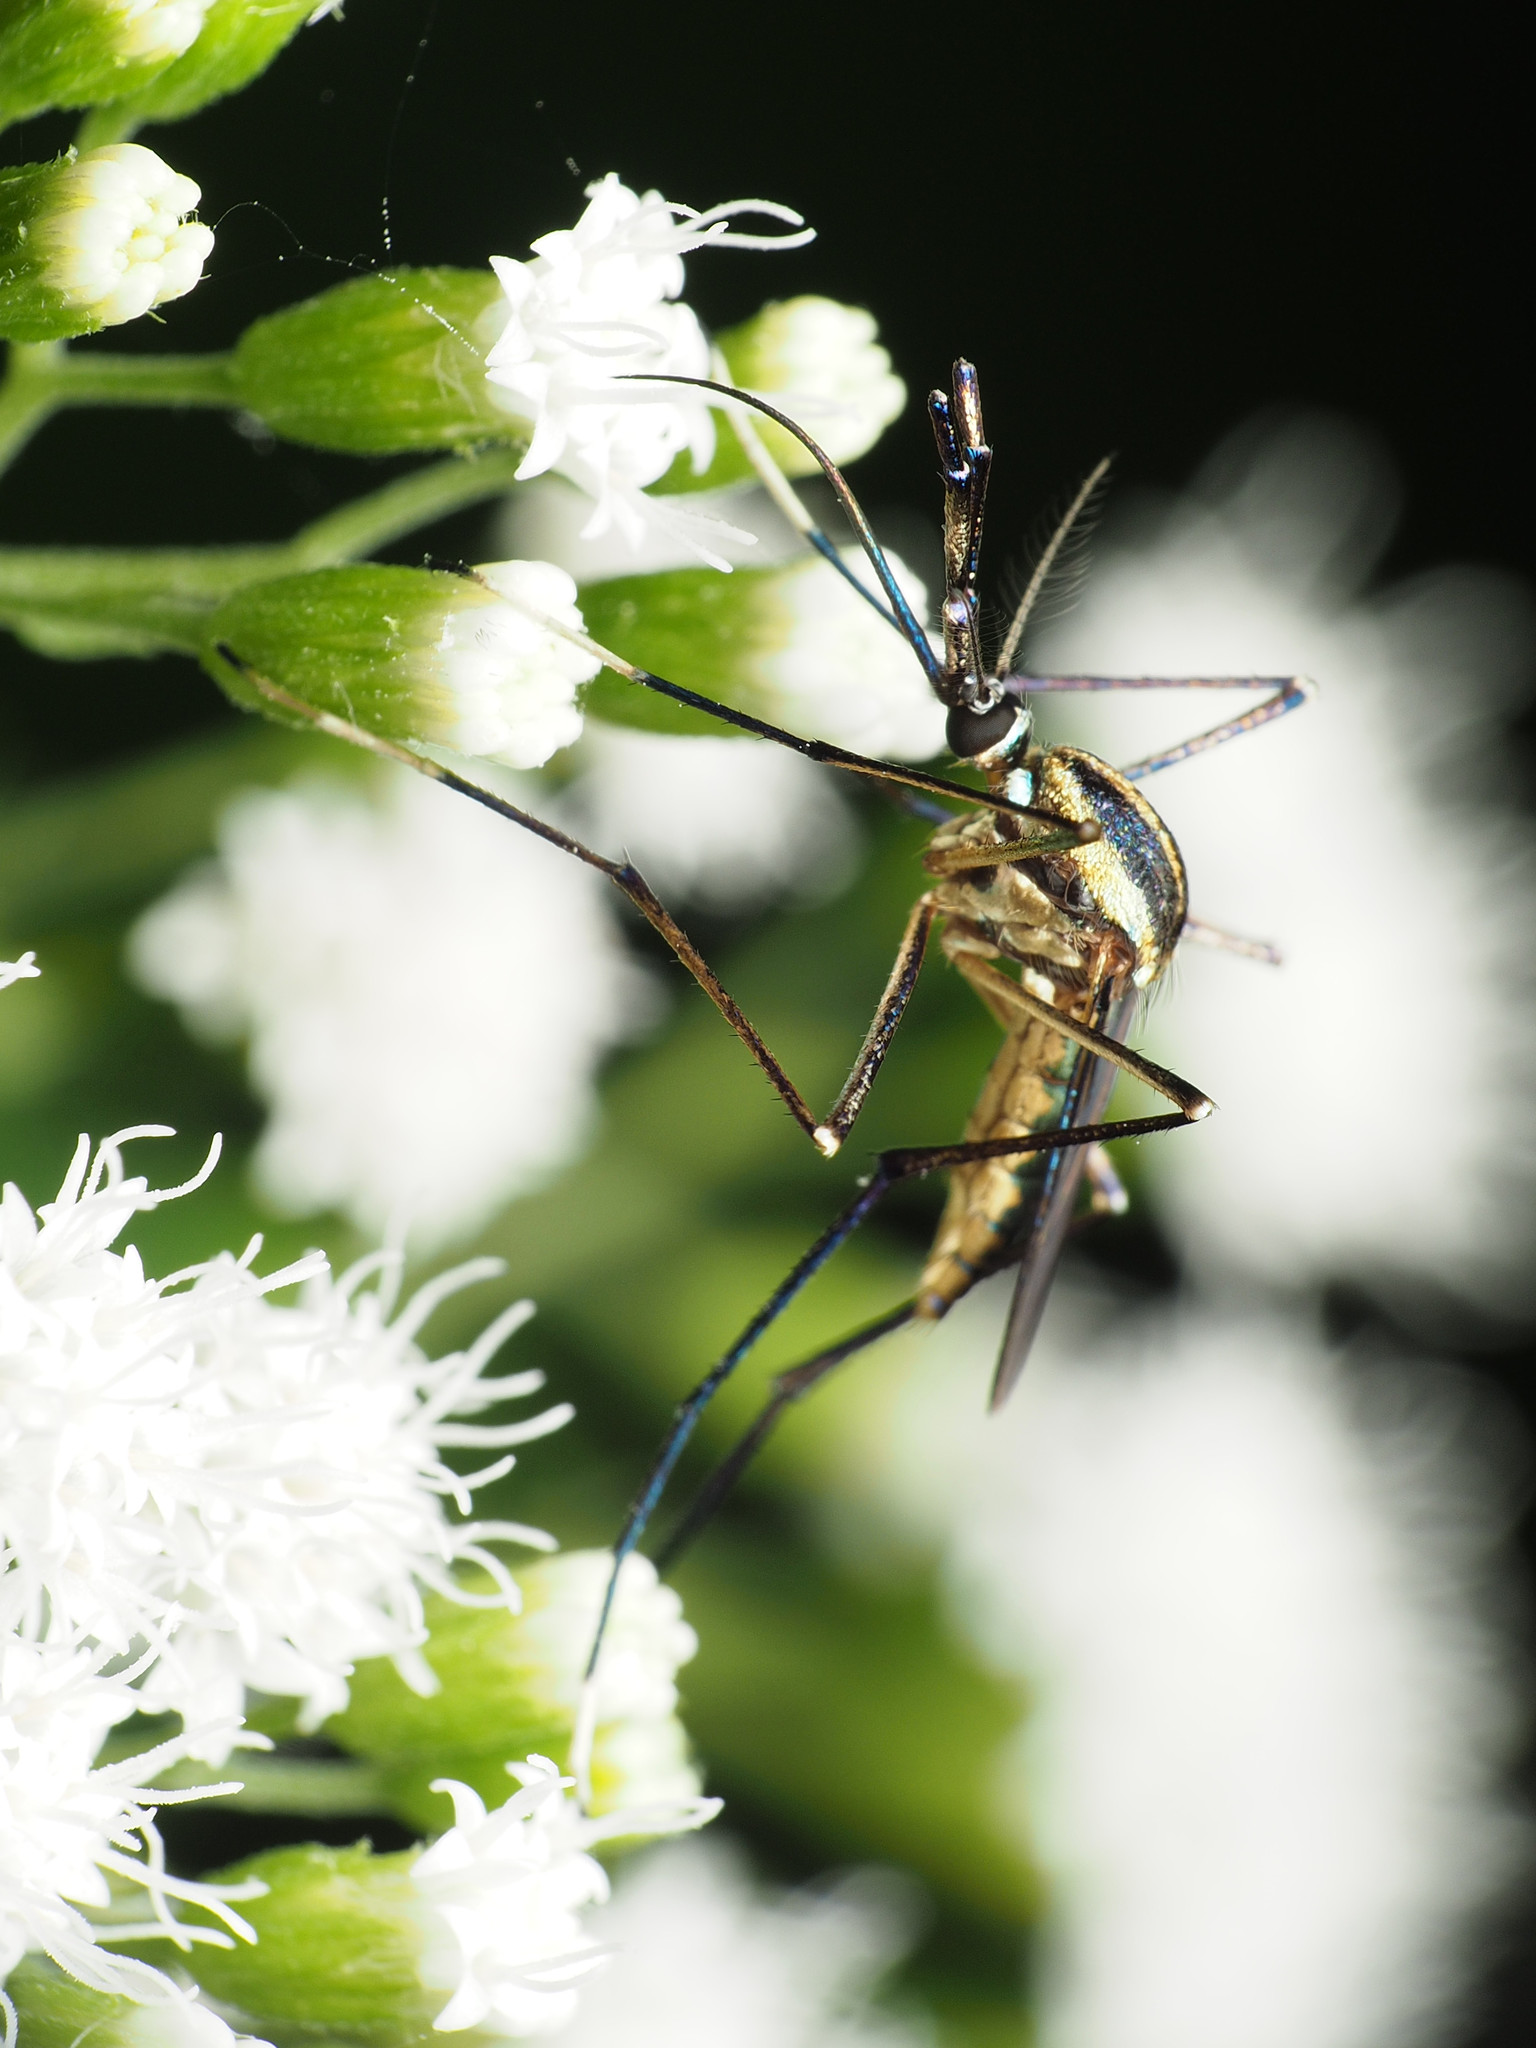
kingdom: Animalia
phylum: Arthropoda
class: Insecta
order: Diptera
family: Culicidae
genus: Toxorhynchites
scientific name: Toxorhynchites rutilus
